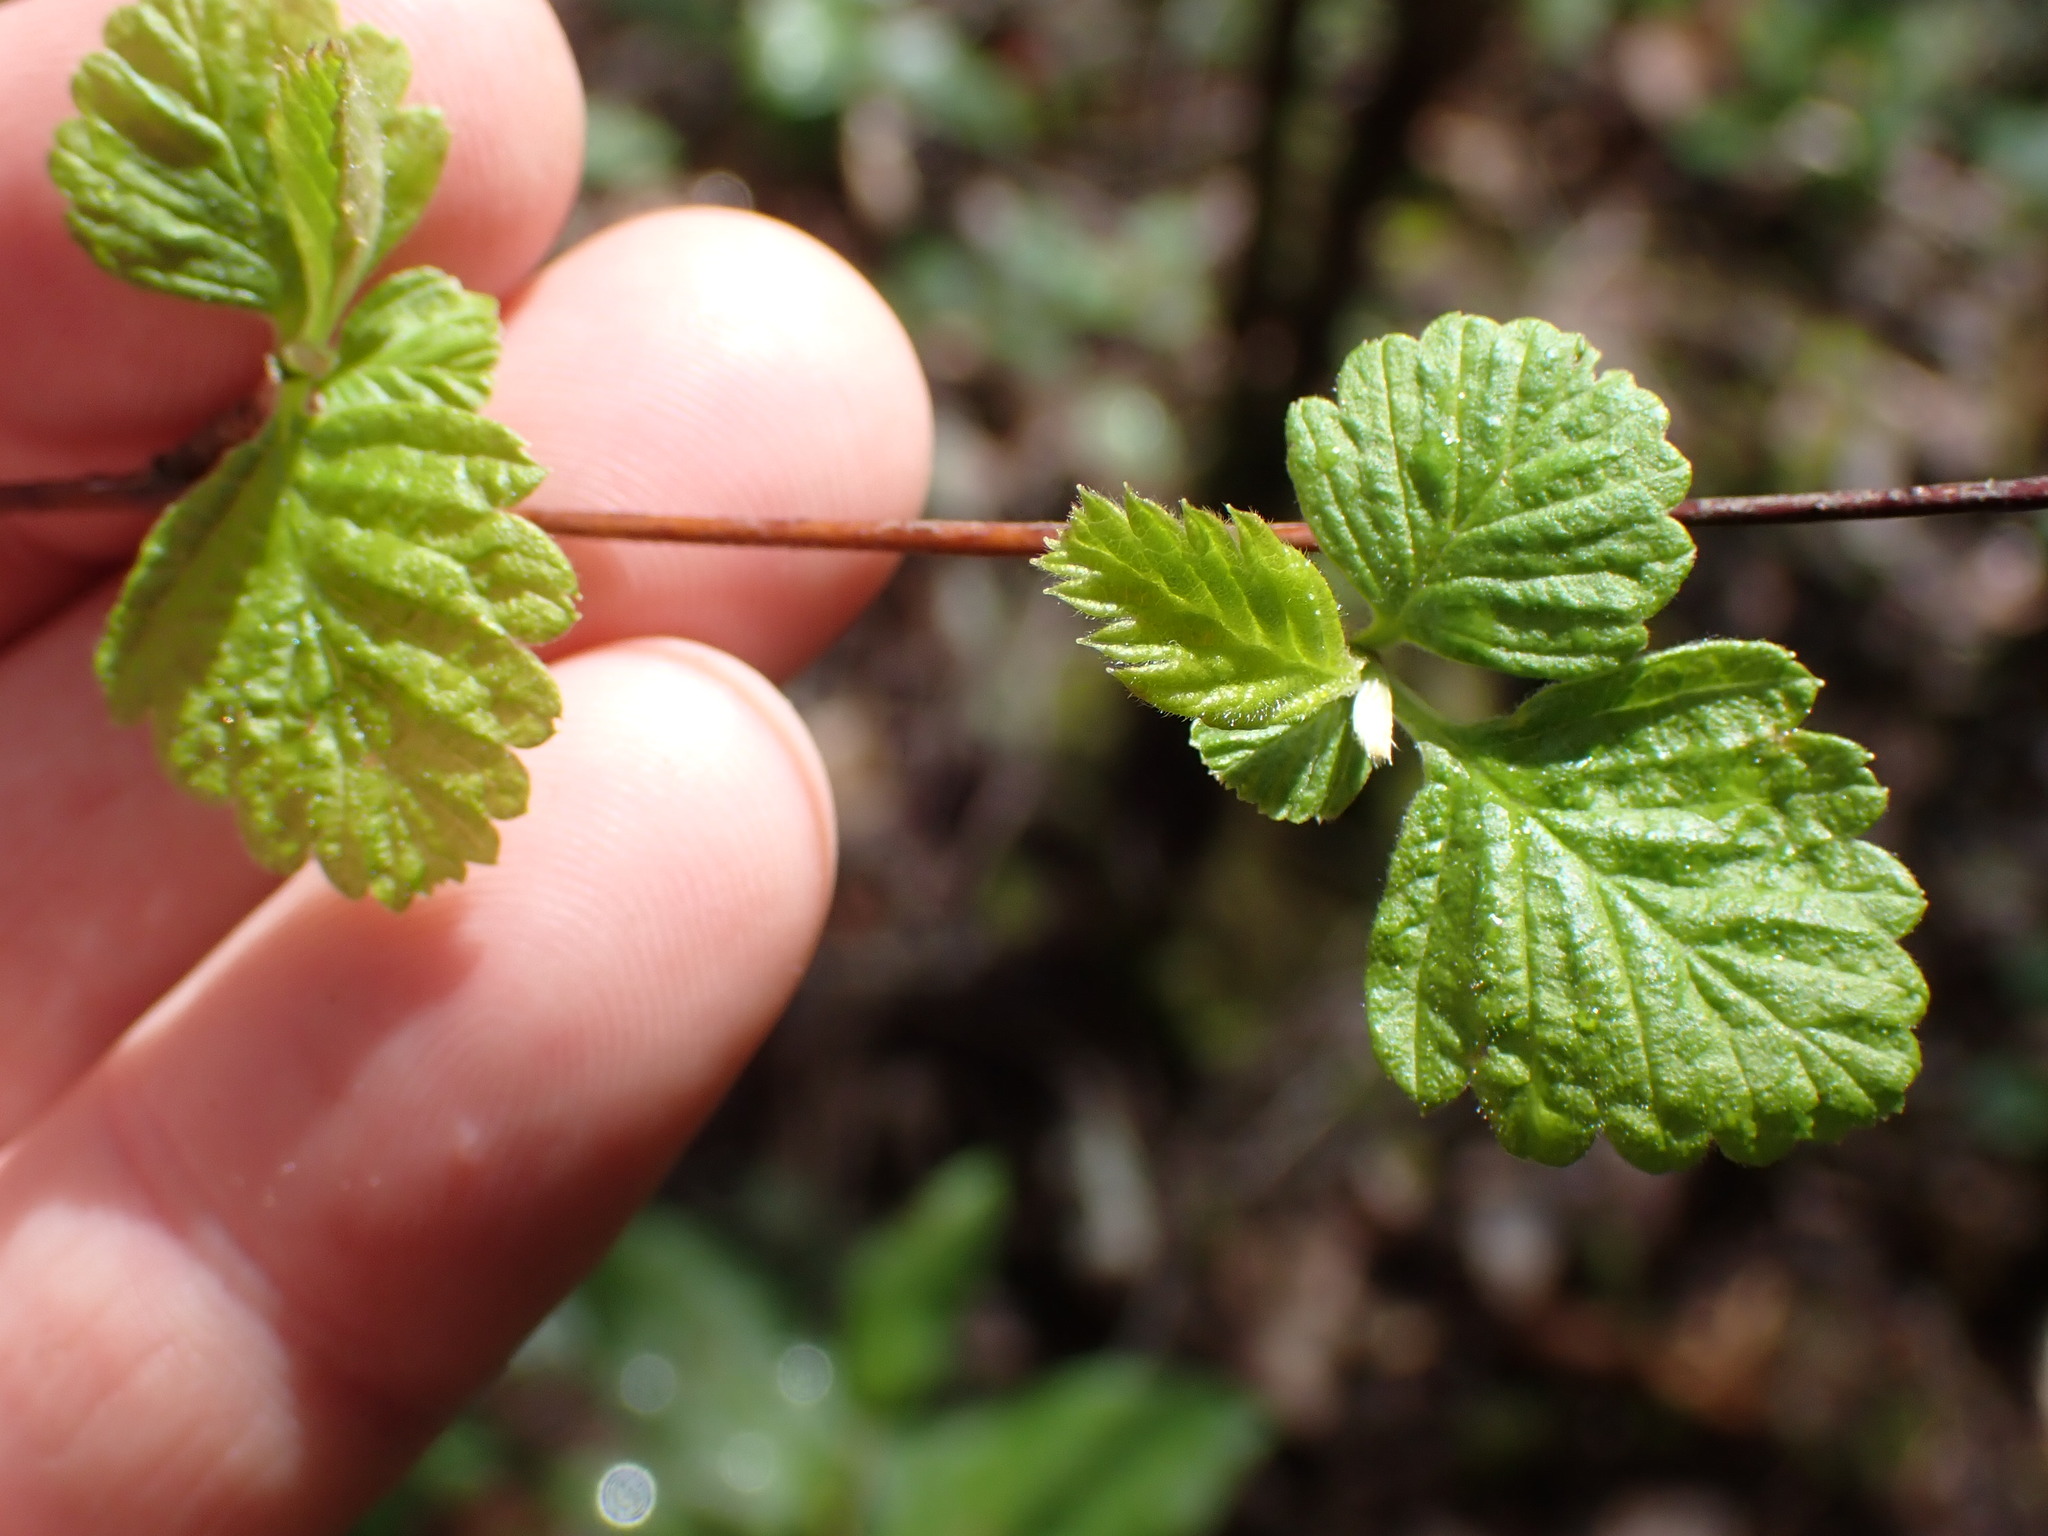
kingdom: Plantae
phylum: Tracheophyta
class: Magnoliopsida
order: Rosales
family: Rosaceae
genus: Holodiscus
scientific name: Holodiscus discolor
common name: Oceanspray
